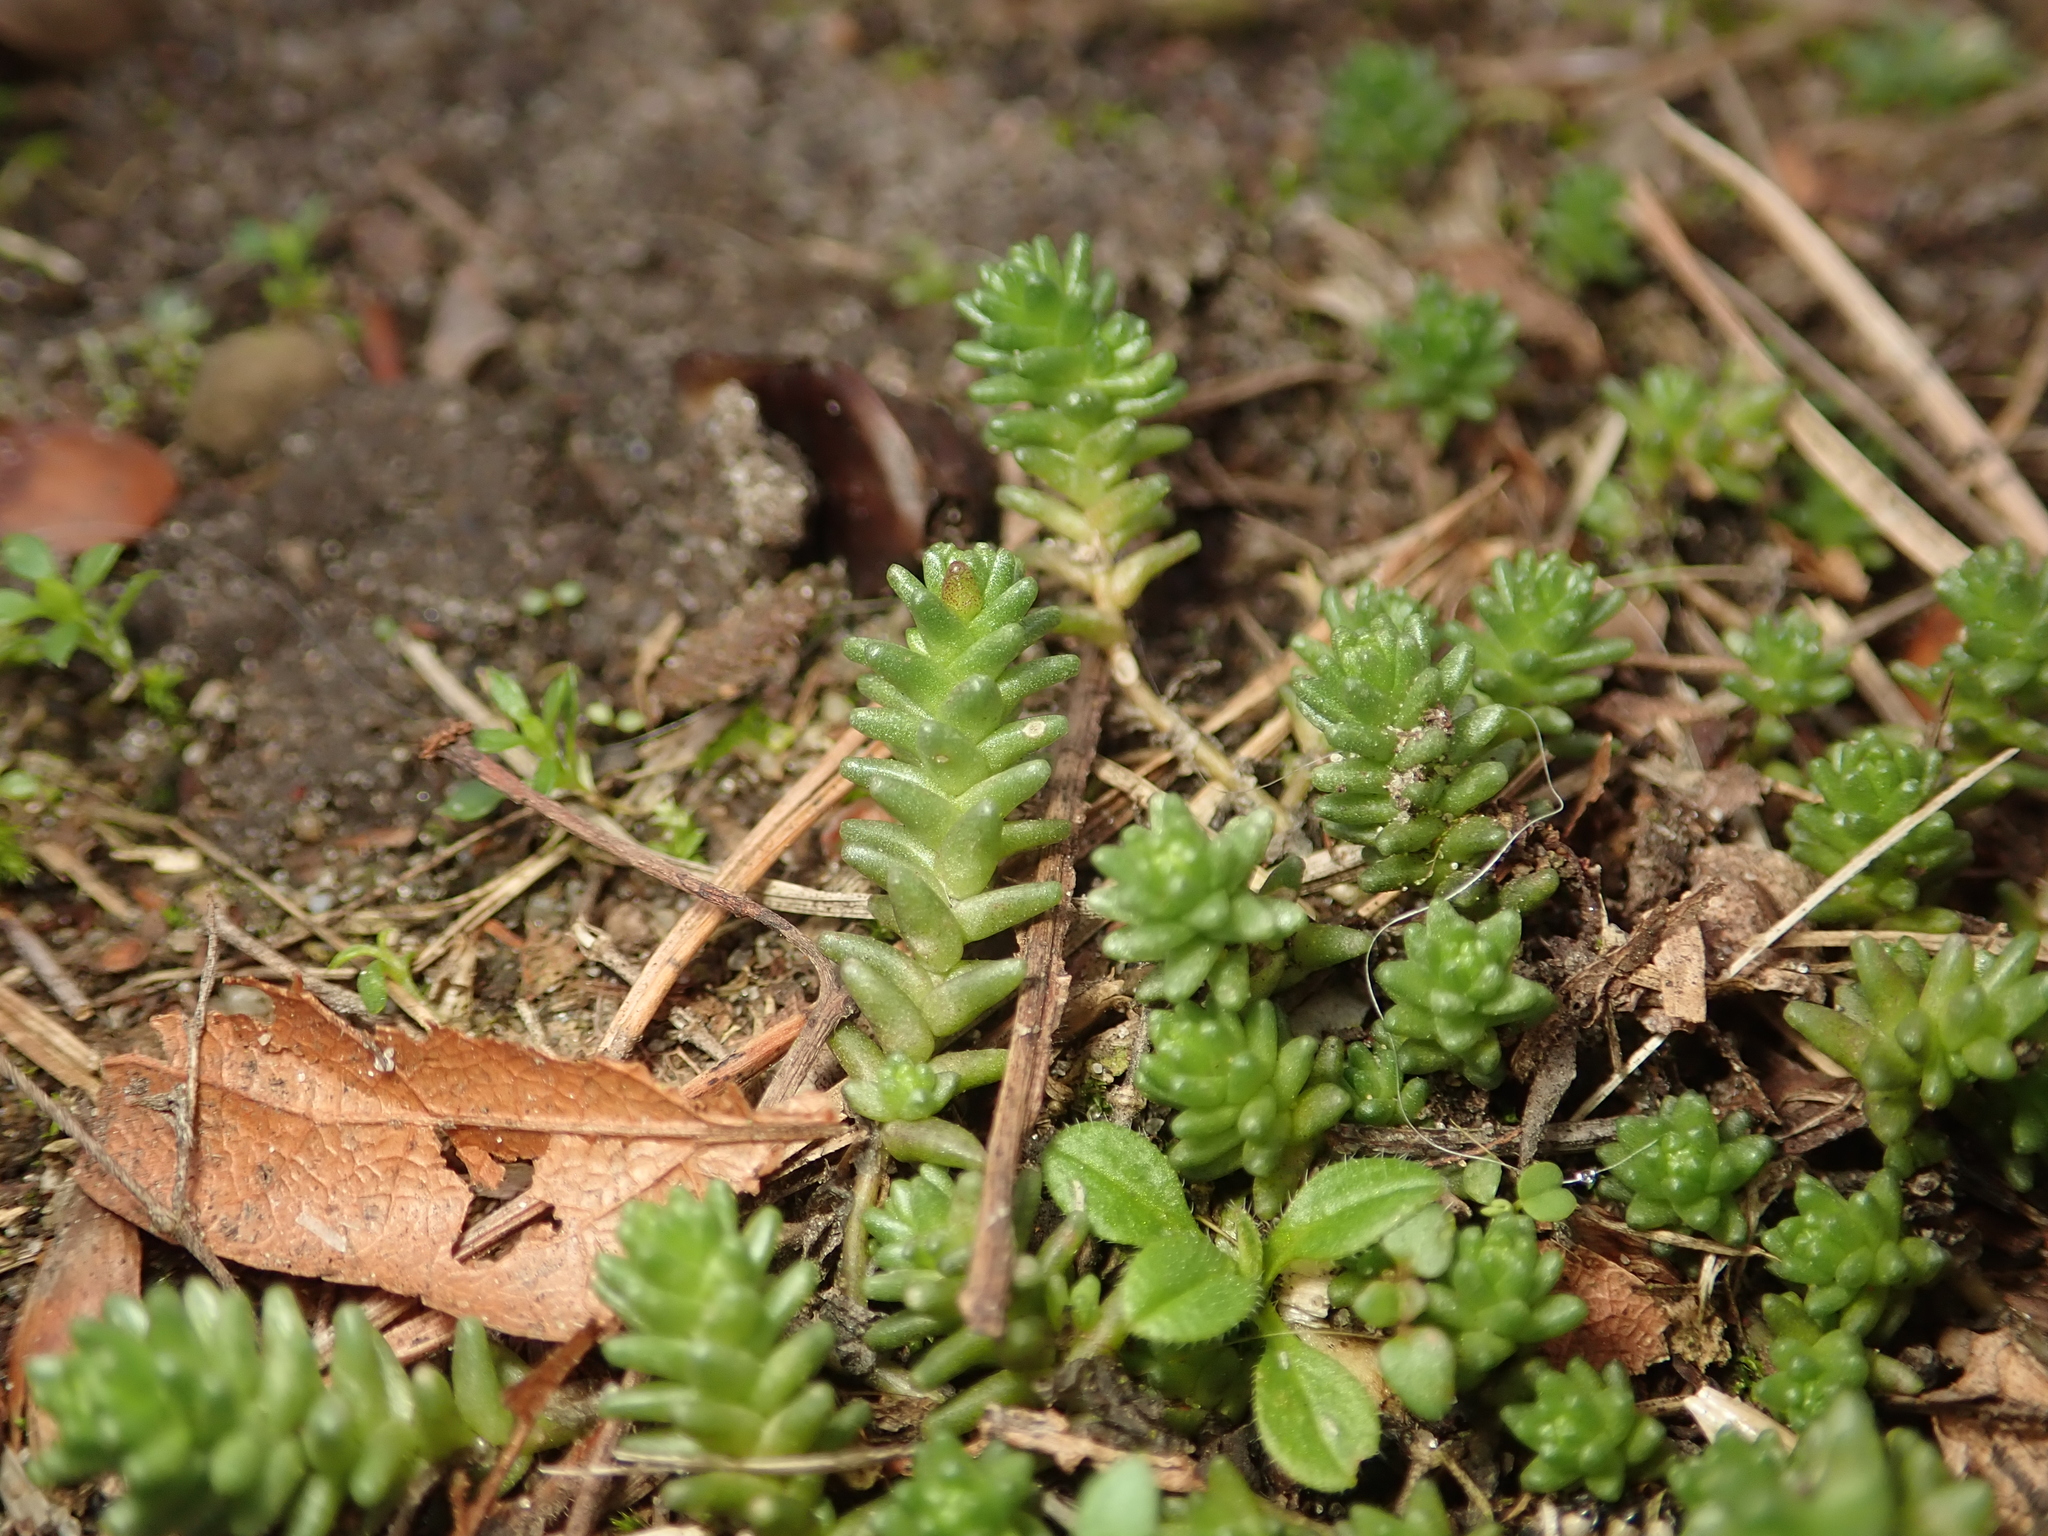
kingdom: Plantae
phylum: Tracheophyta
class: Magnoliopsida
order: Saxifragales
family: Crassulaceae
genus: Sedum
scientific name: Sedum acre
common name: Biting stonecrop
